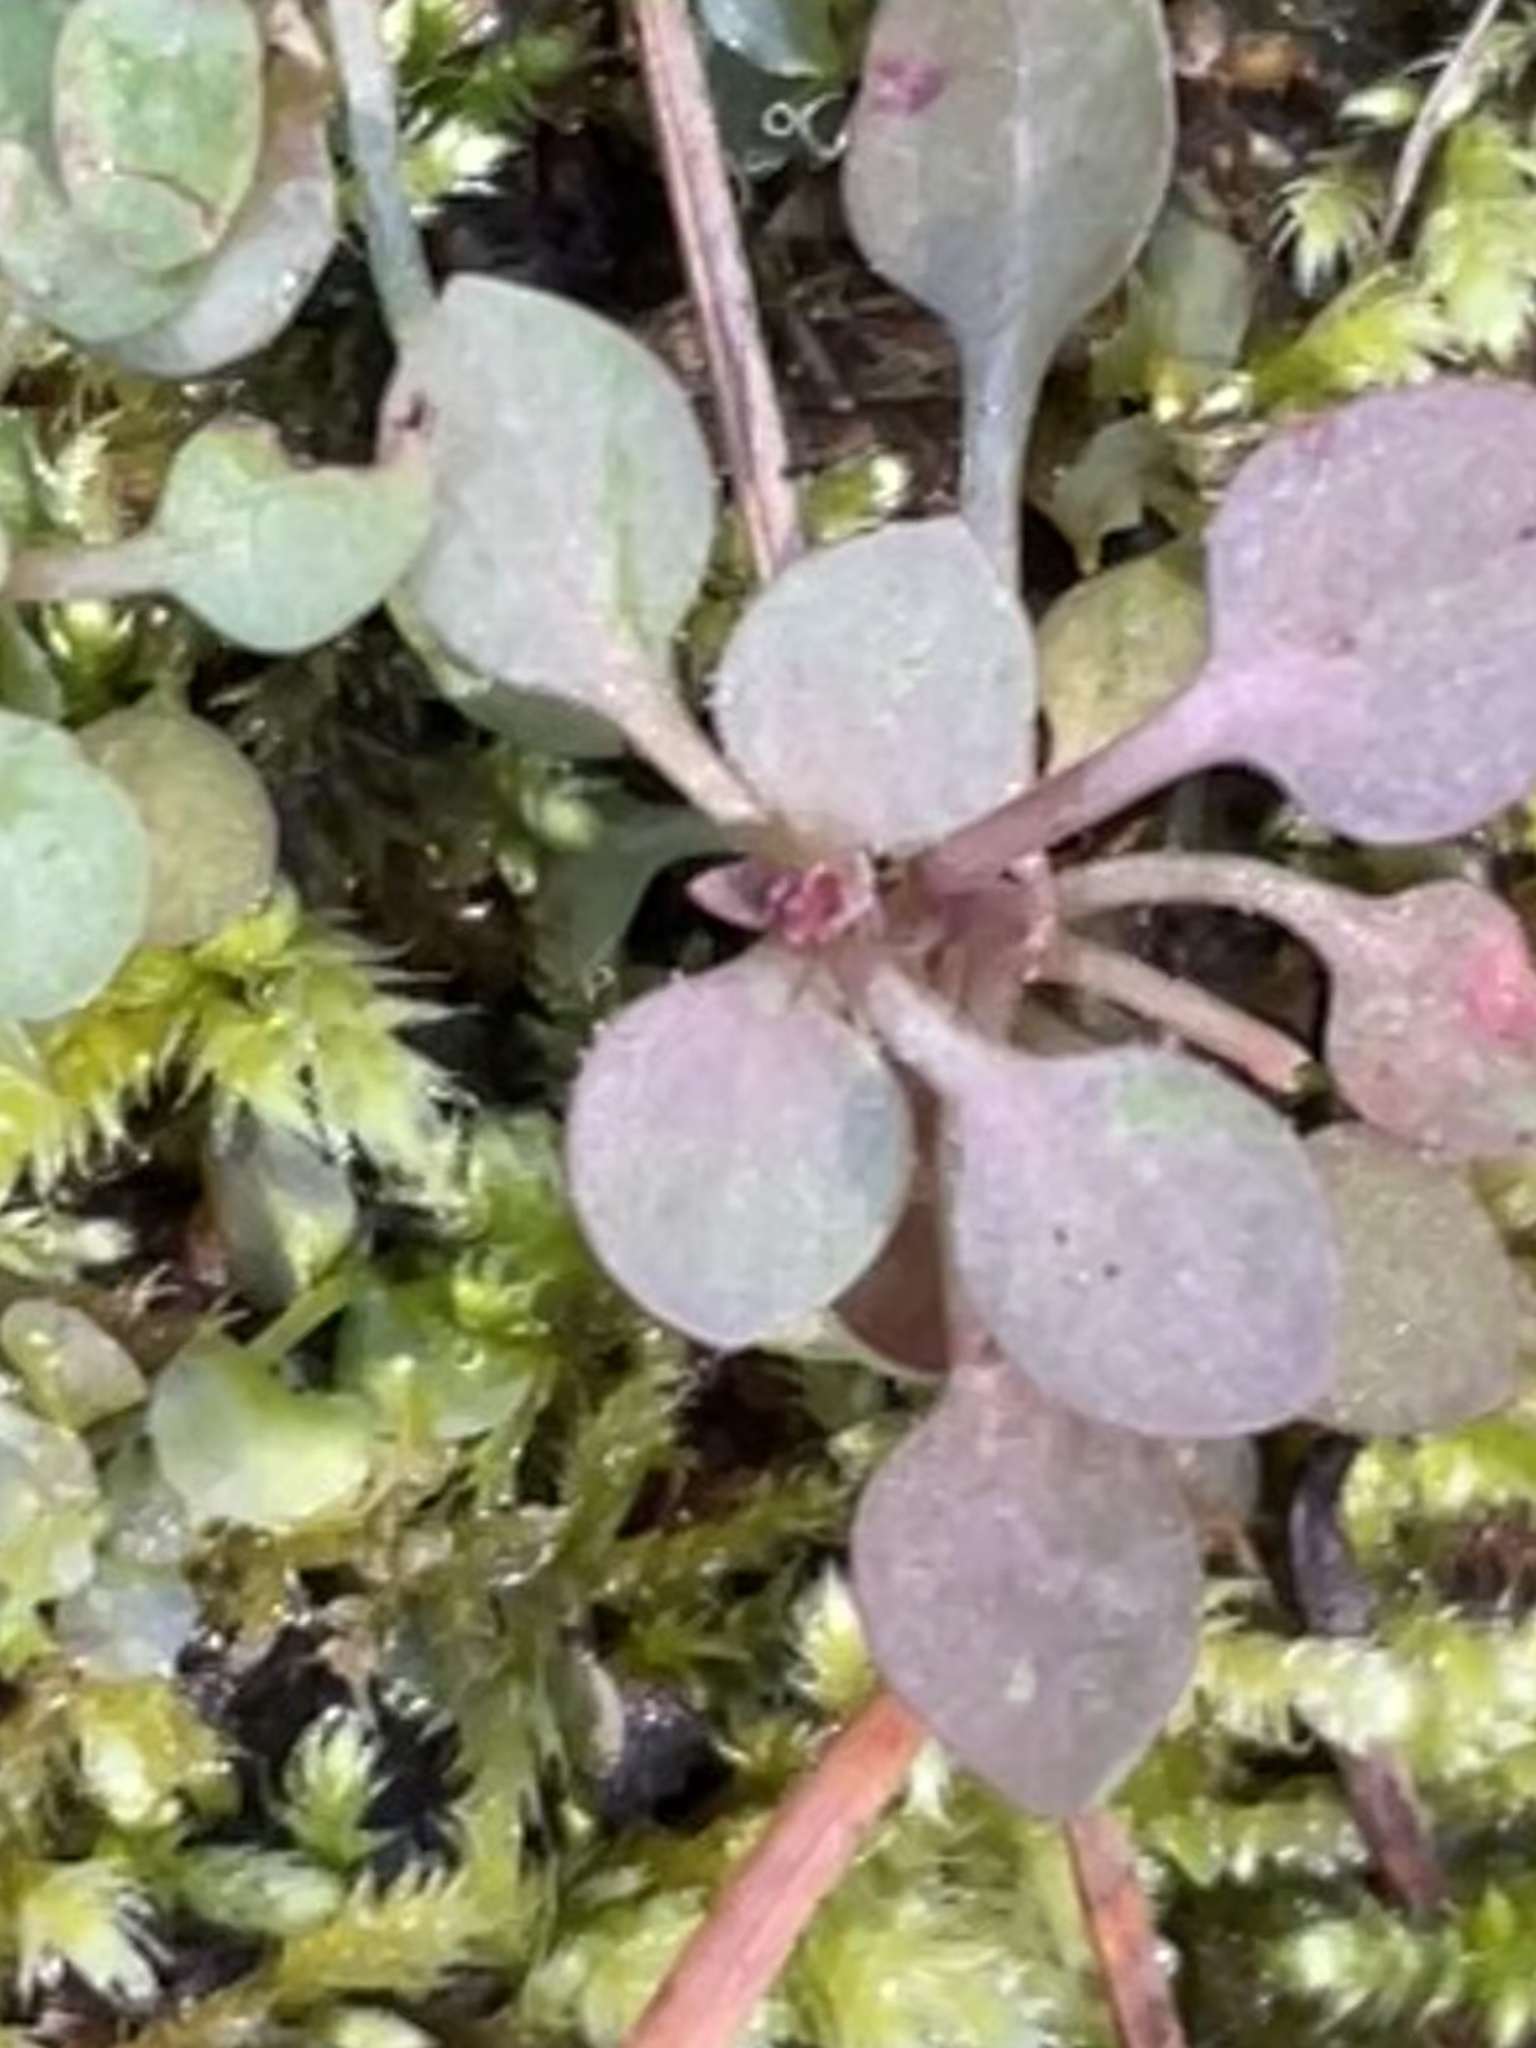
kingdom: Plantae
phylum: Tracheophyta
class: Magnoliopsida
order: Gentianales
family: Rubiaceae
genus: Houstonia
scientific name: Houstonia caerulea
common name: Bluets
